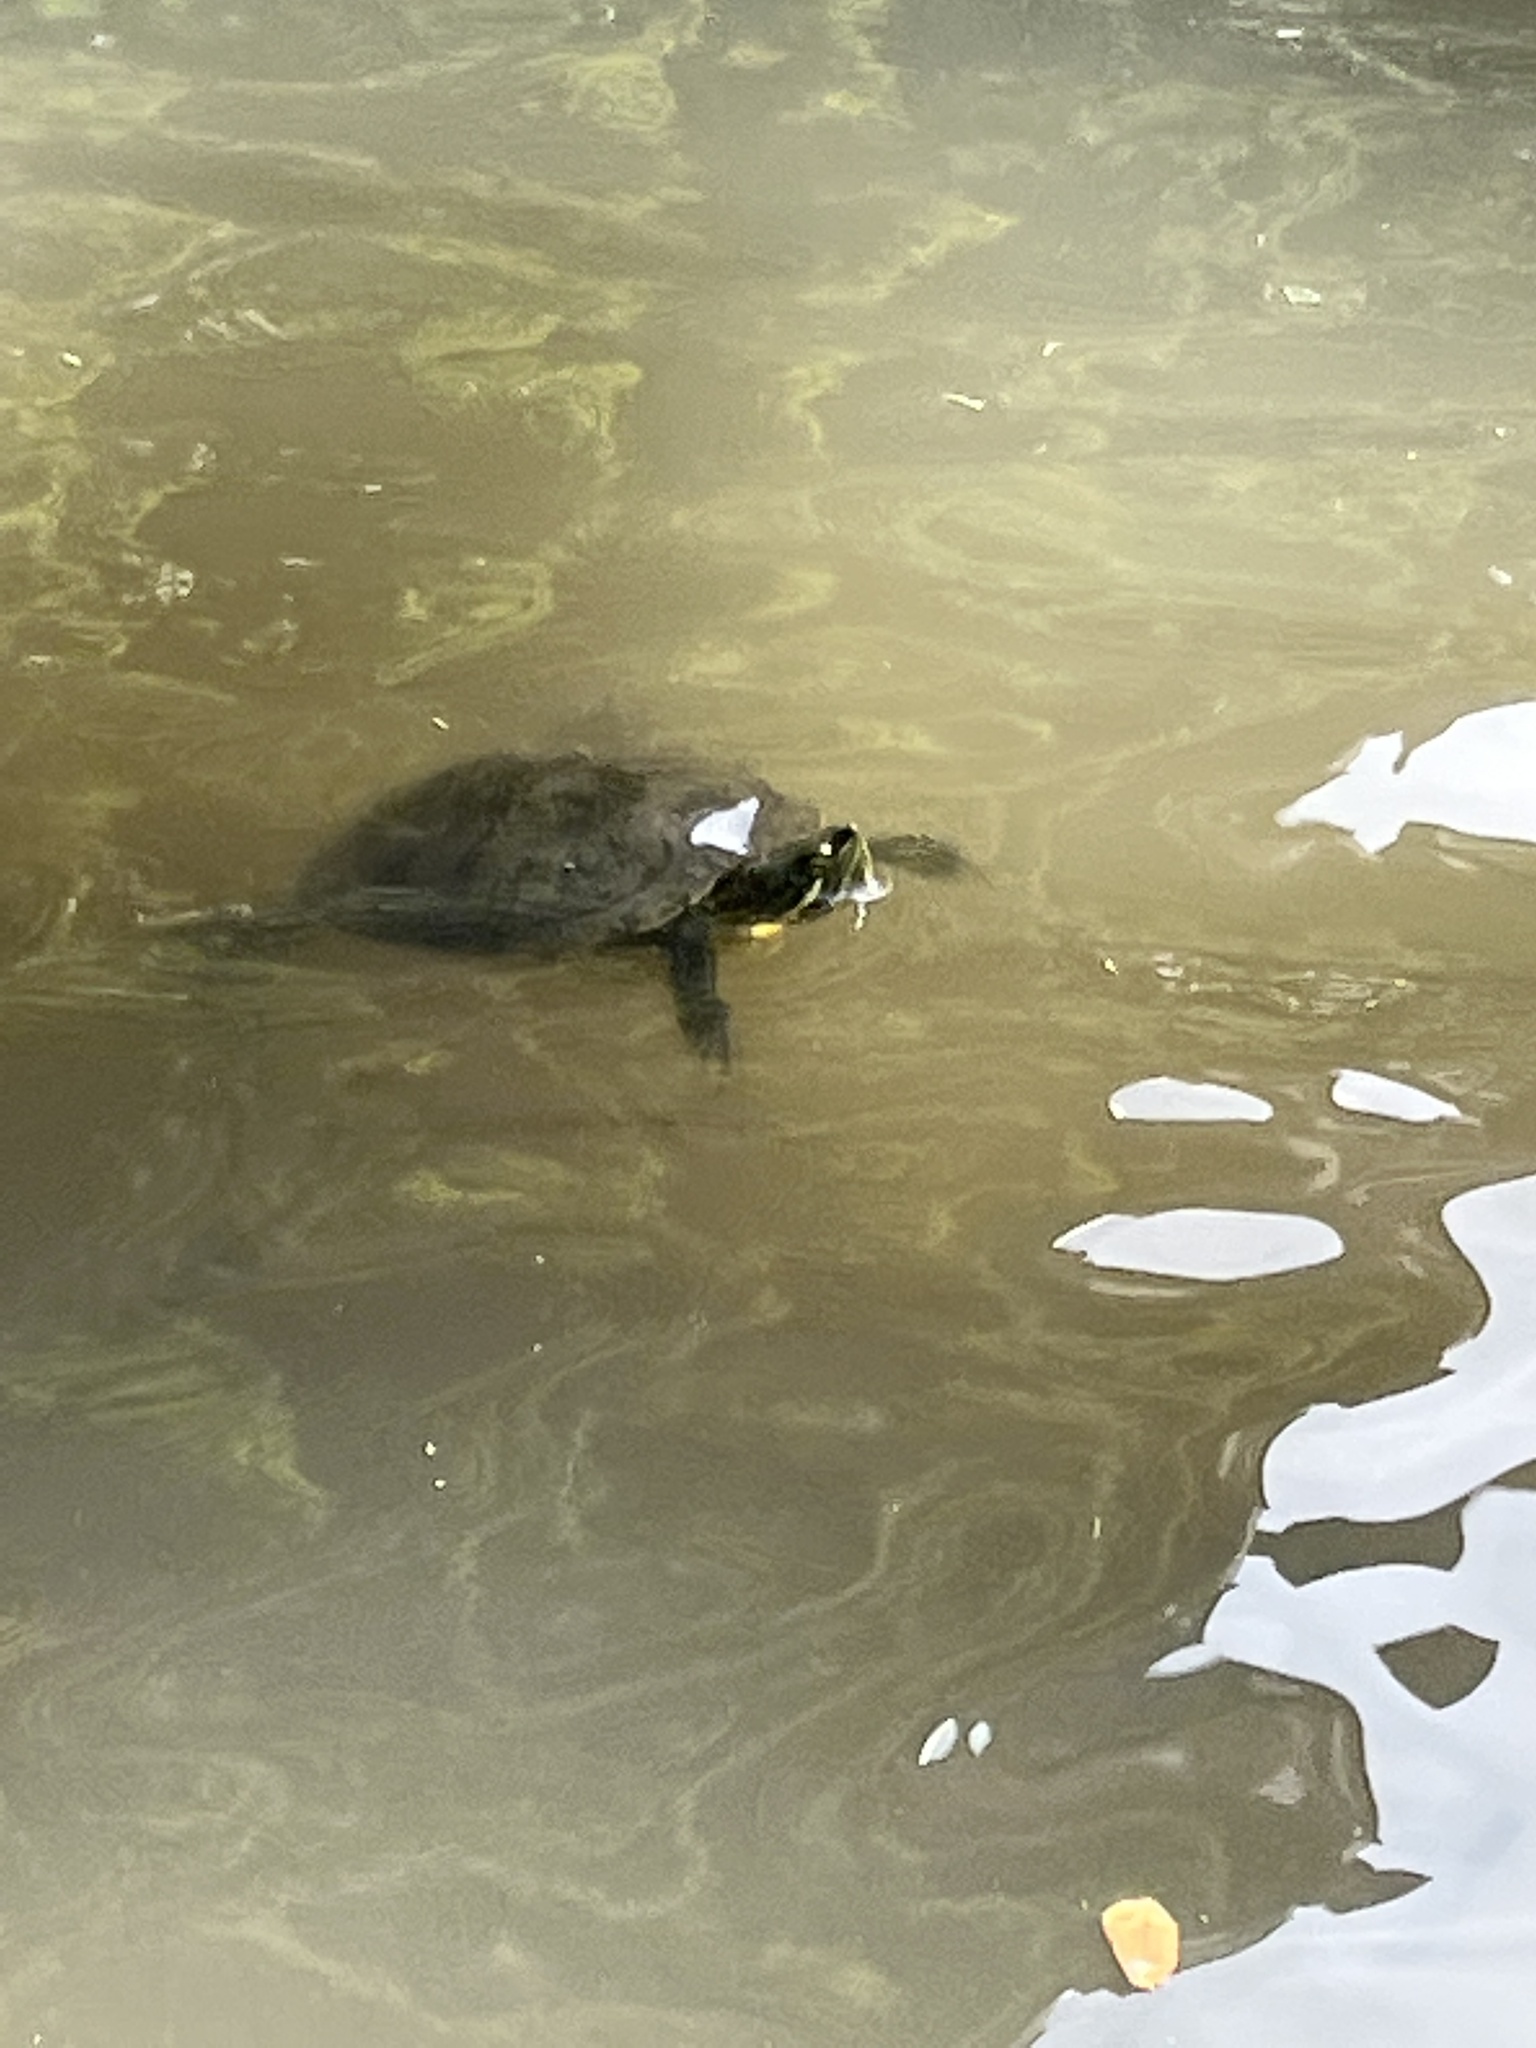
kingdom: Animalia
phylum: Chordata
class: Testudines
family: Emydidae
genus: Trachemys
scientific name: Trachemys scripta
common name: Slider
